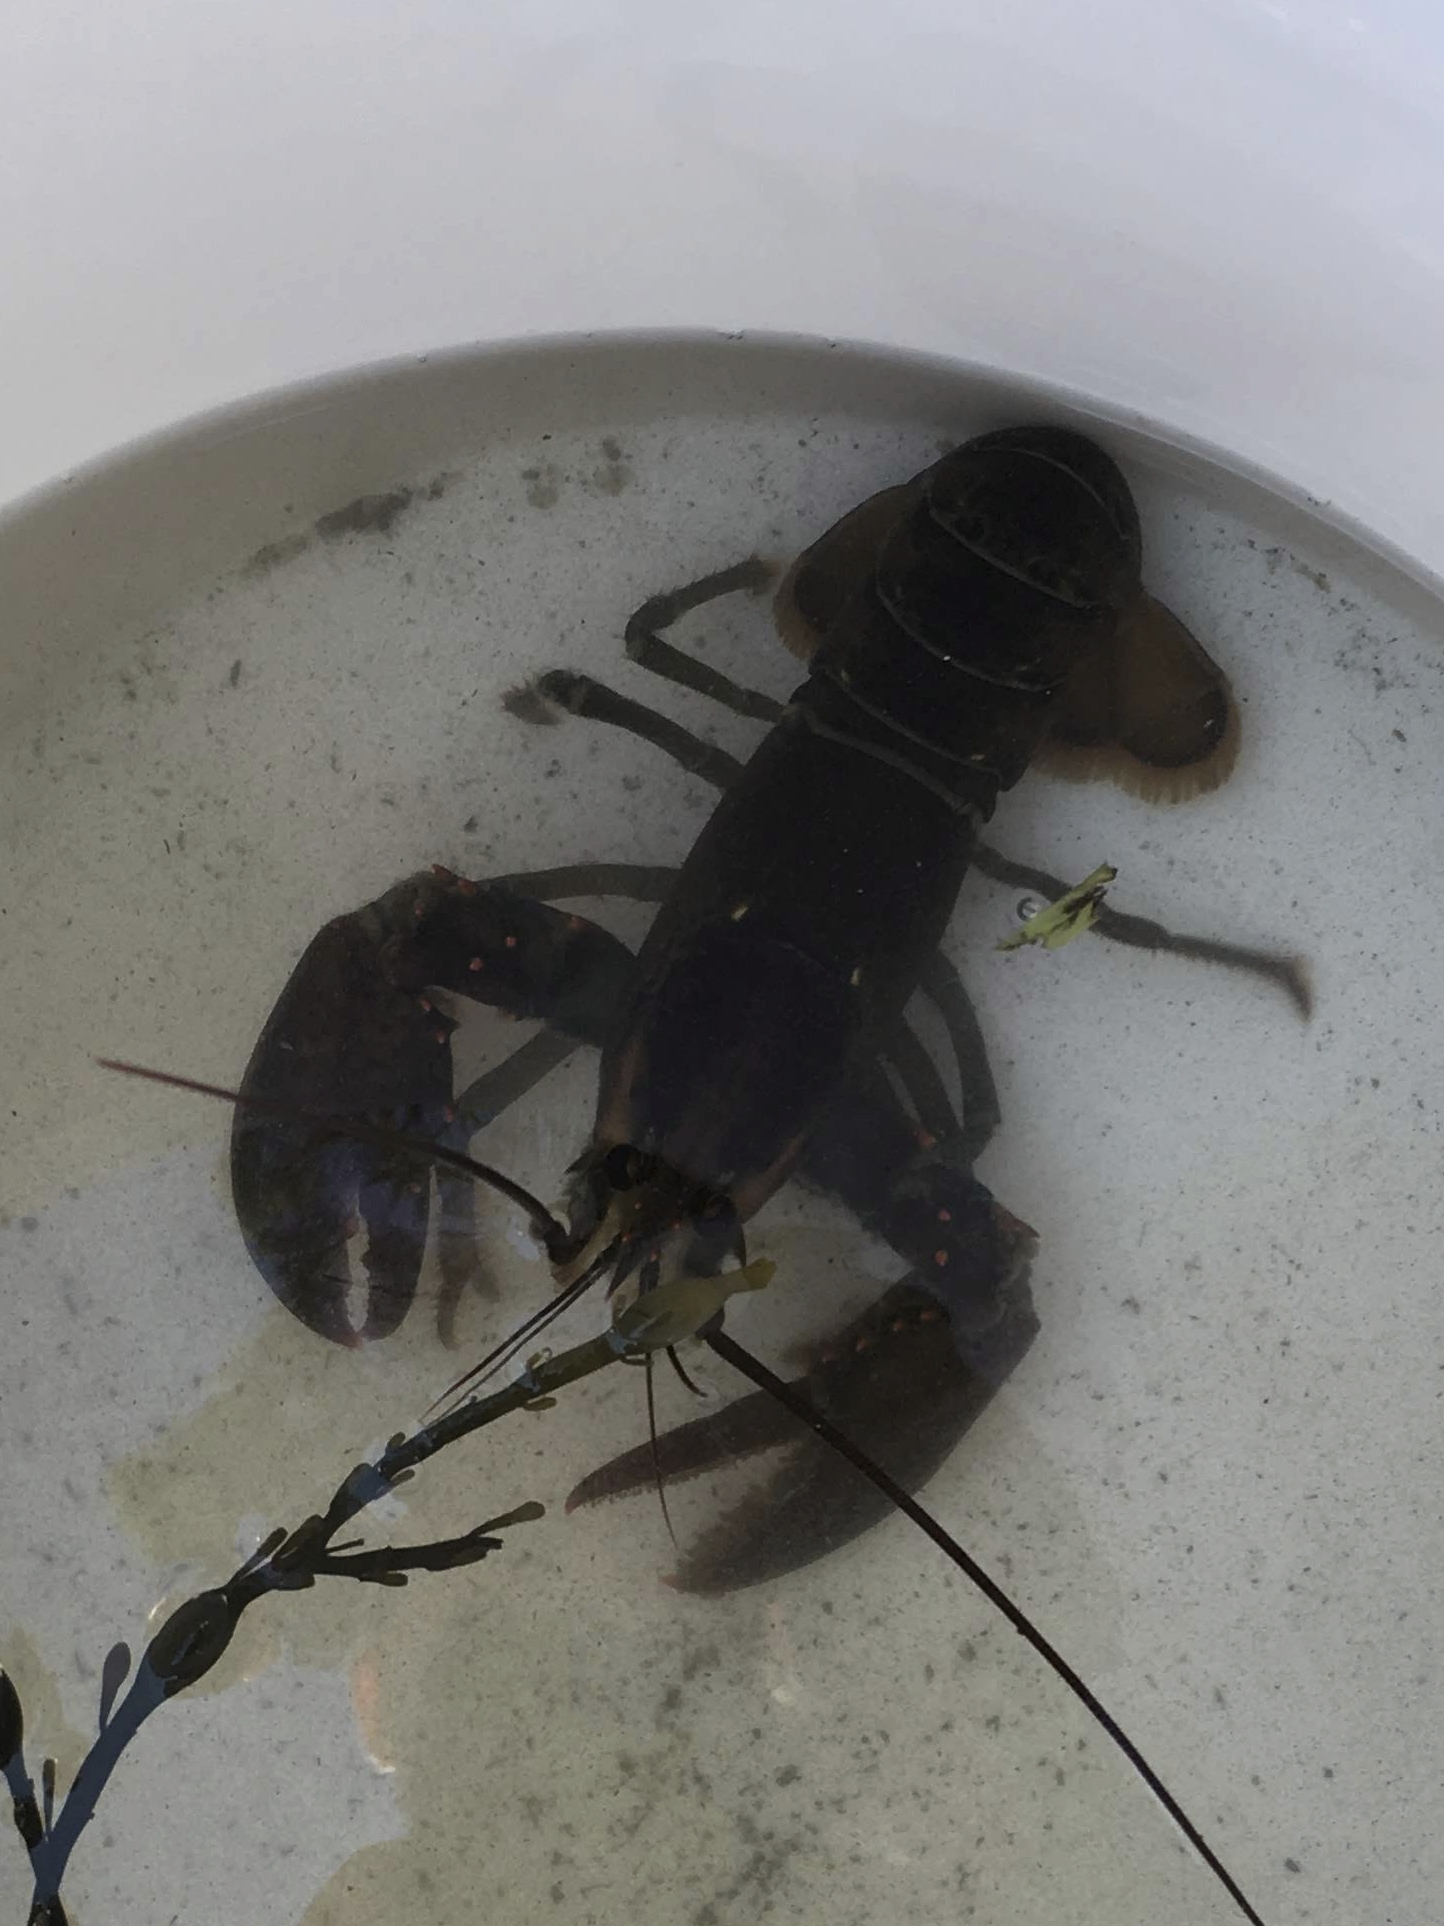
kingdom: Animalia
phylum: Arthropoda
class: Malacostraca
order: Decapoda
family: Nephropidae
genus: Homarus
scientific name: Homarus americanus
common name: American lobster
